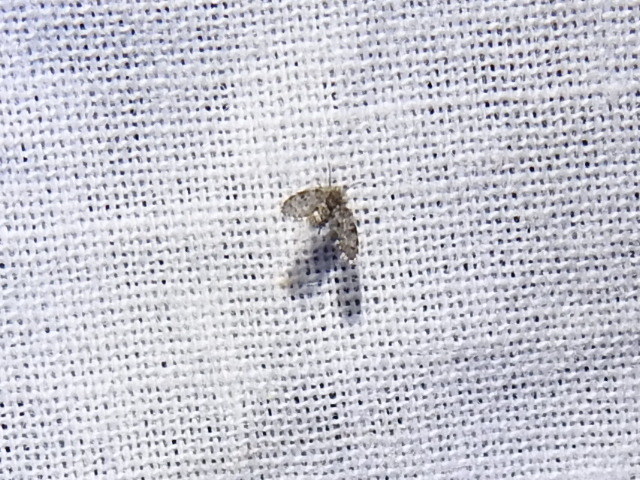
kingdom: Animalia
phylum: Arthropoda
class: Insecta
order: Diptera
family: Psychodidae
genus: Clogmia
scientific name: Clogmia albipunctatus
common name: White-spotted moth fly
